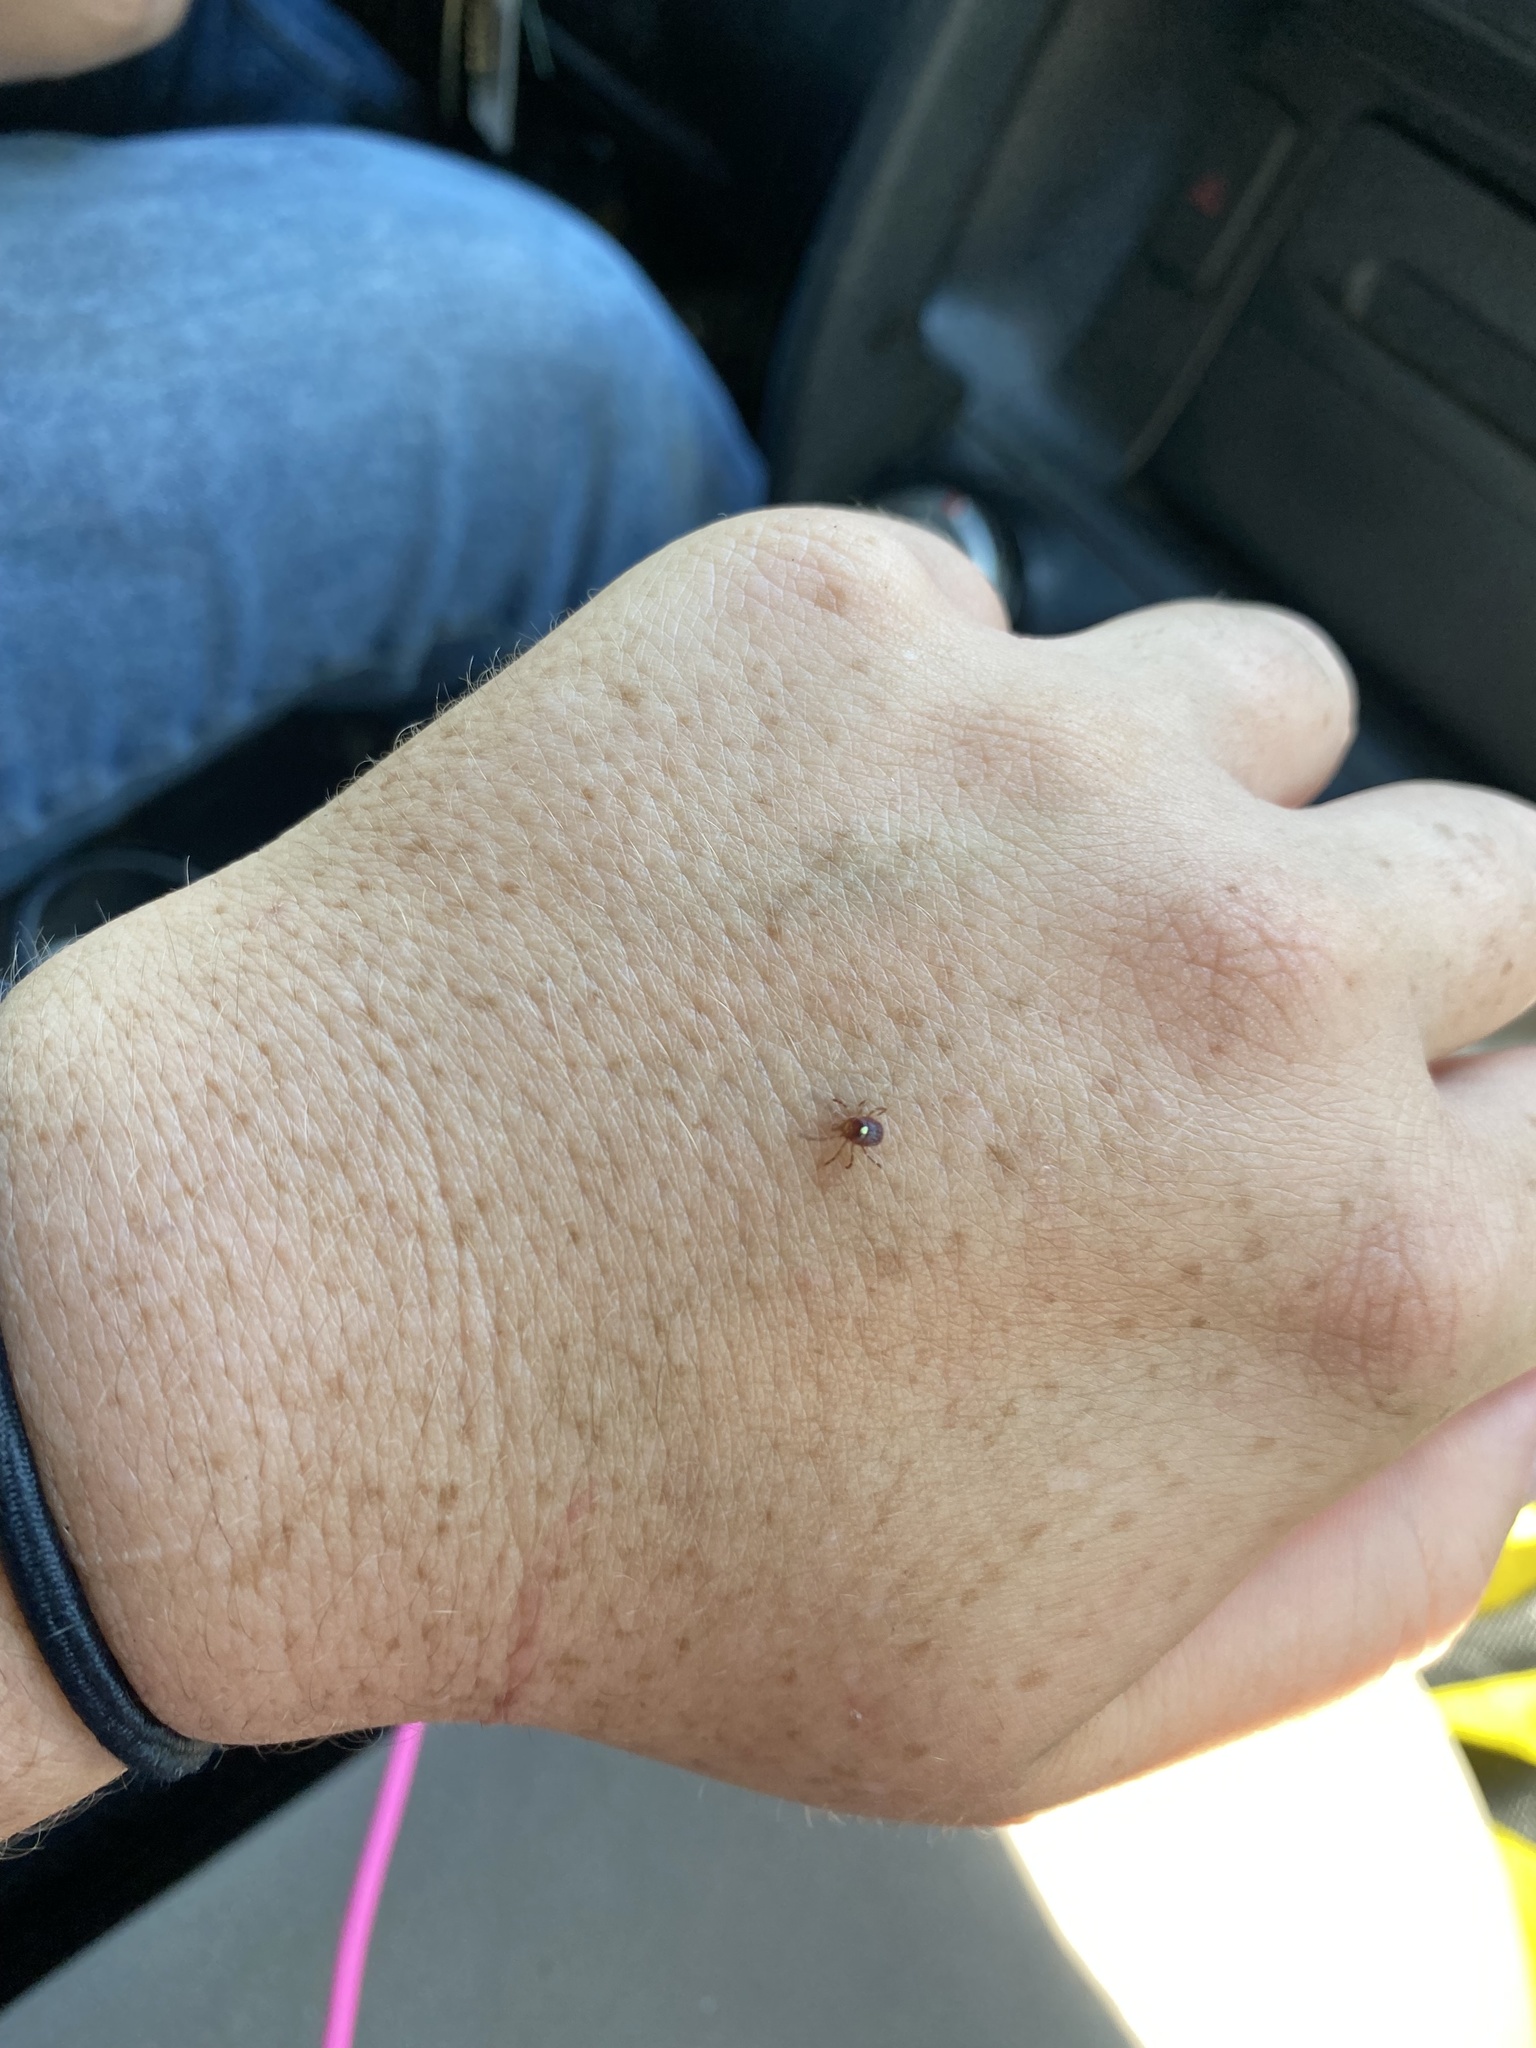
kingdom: Animalia
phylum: Arthropoda
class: Arachnida
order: Ixodida
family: Ixodidae
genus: Amblyomma
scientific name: Amblyomma americanum
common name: Lone star tick
